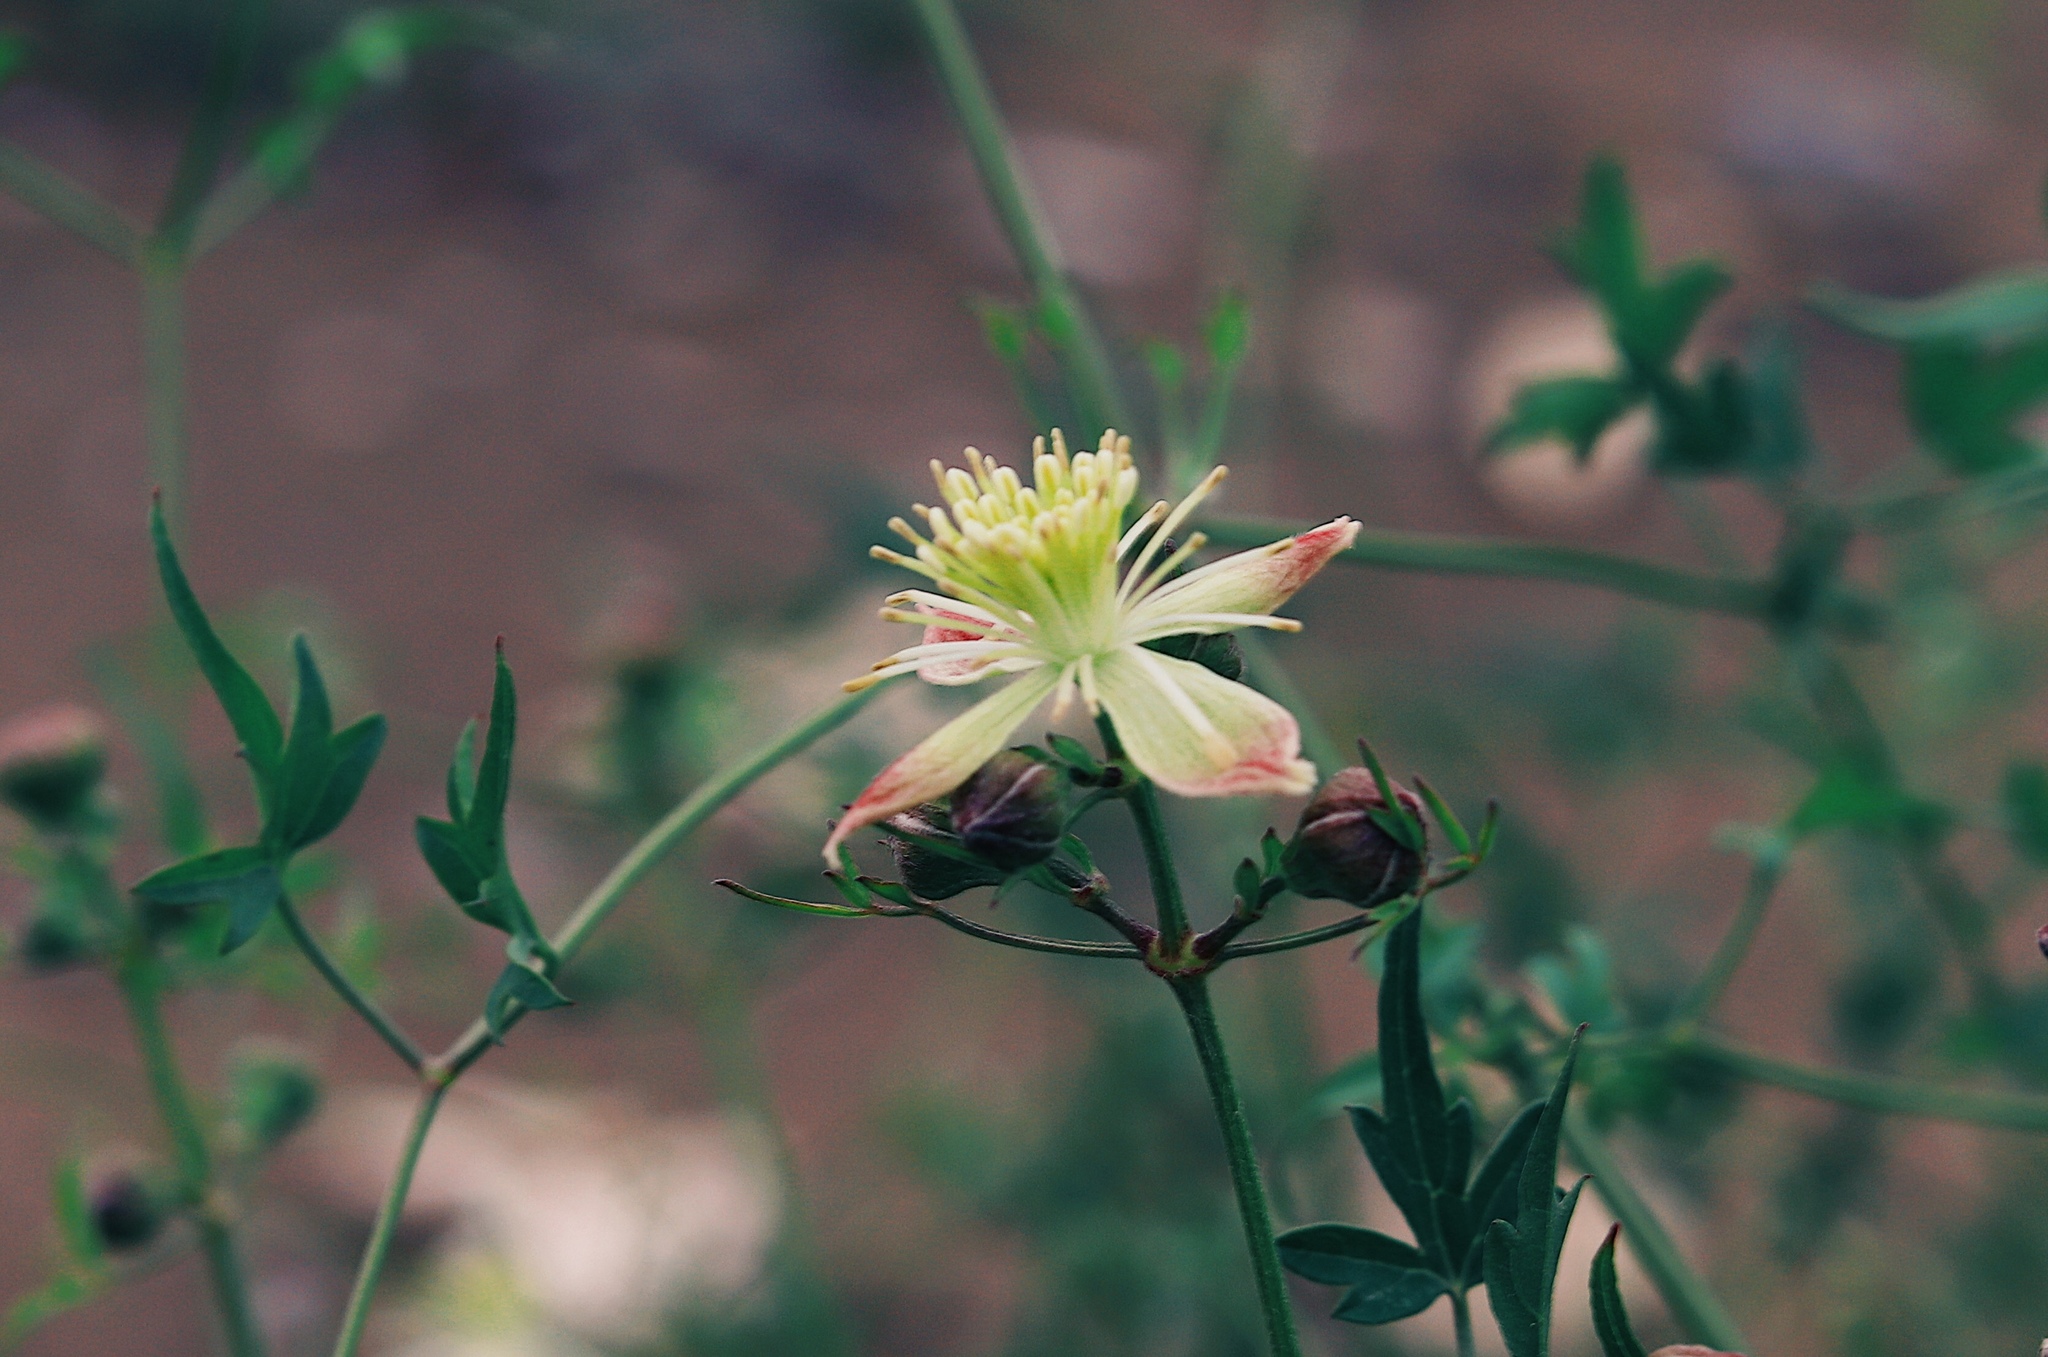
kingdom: Plantae
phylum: Tracheophyta
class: Magnoliopsida
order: Ranunculales
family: Ranunculaceae
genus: Clematis
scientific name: Clematis drummondii
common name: Texas virgin's bower
